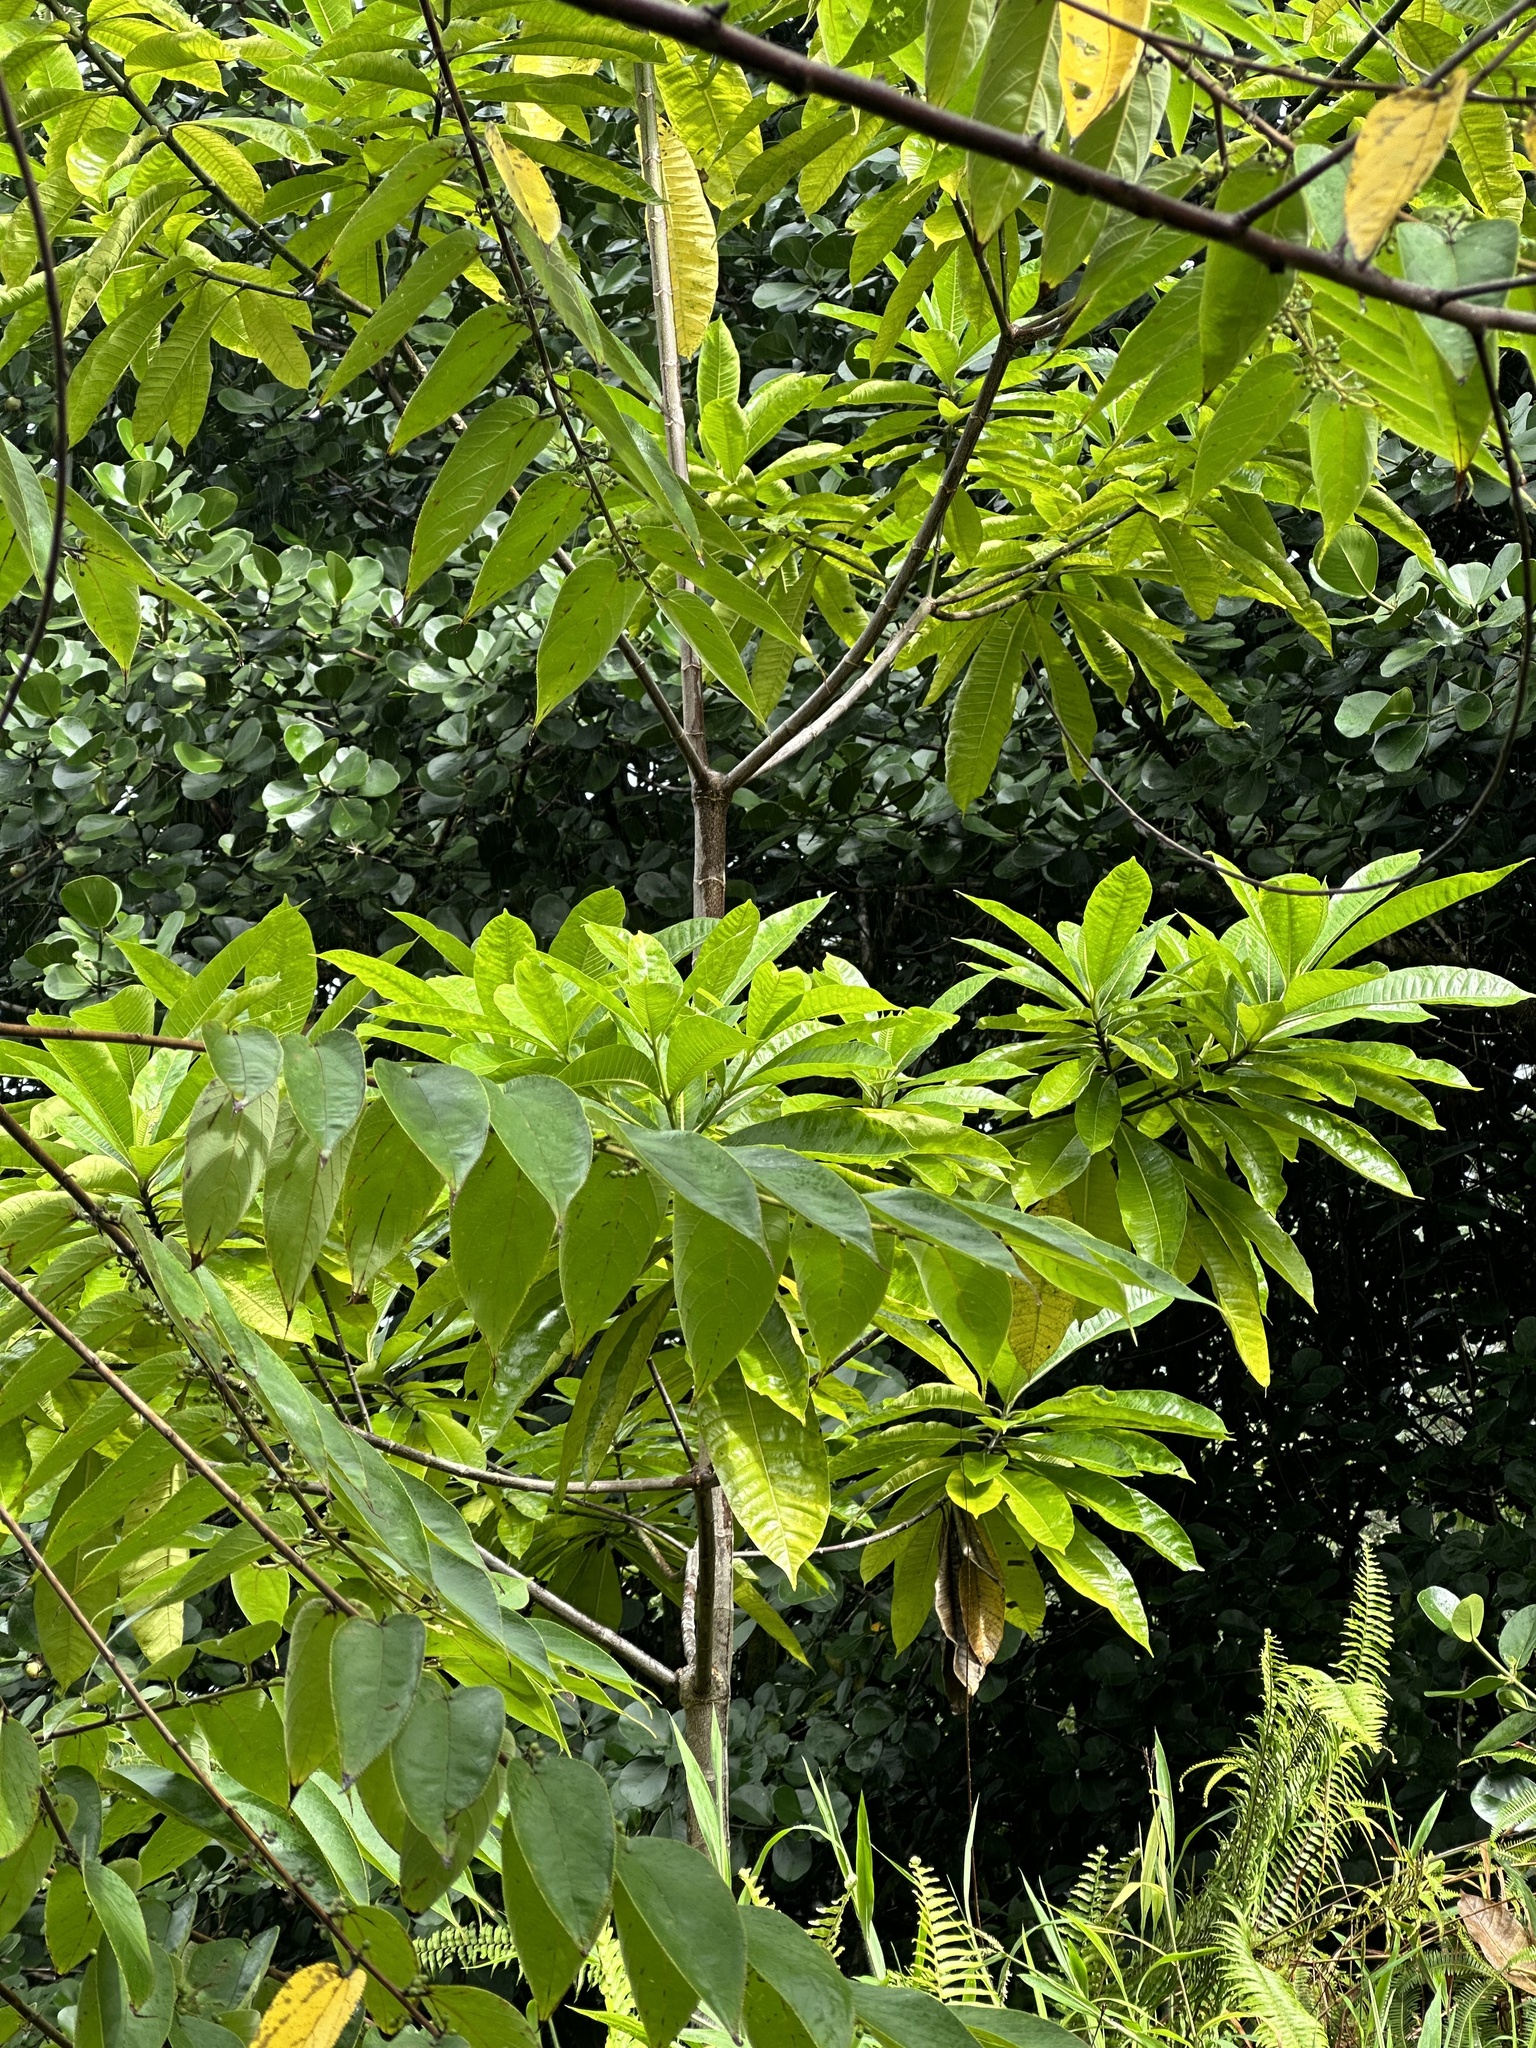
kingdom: Plantae
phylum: Tracheophyta
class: Magnoliopsida
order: Gentianales
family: Apocynaceae
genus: Alstonia
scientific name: Alstonia macrophylla
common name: Deviltree
